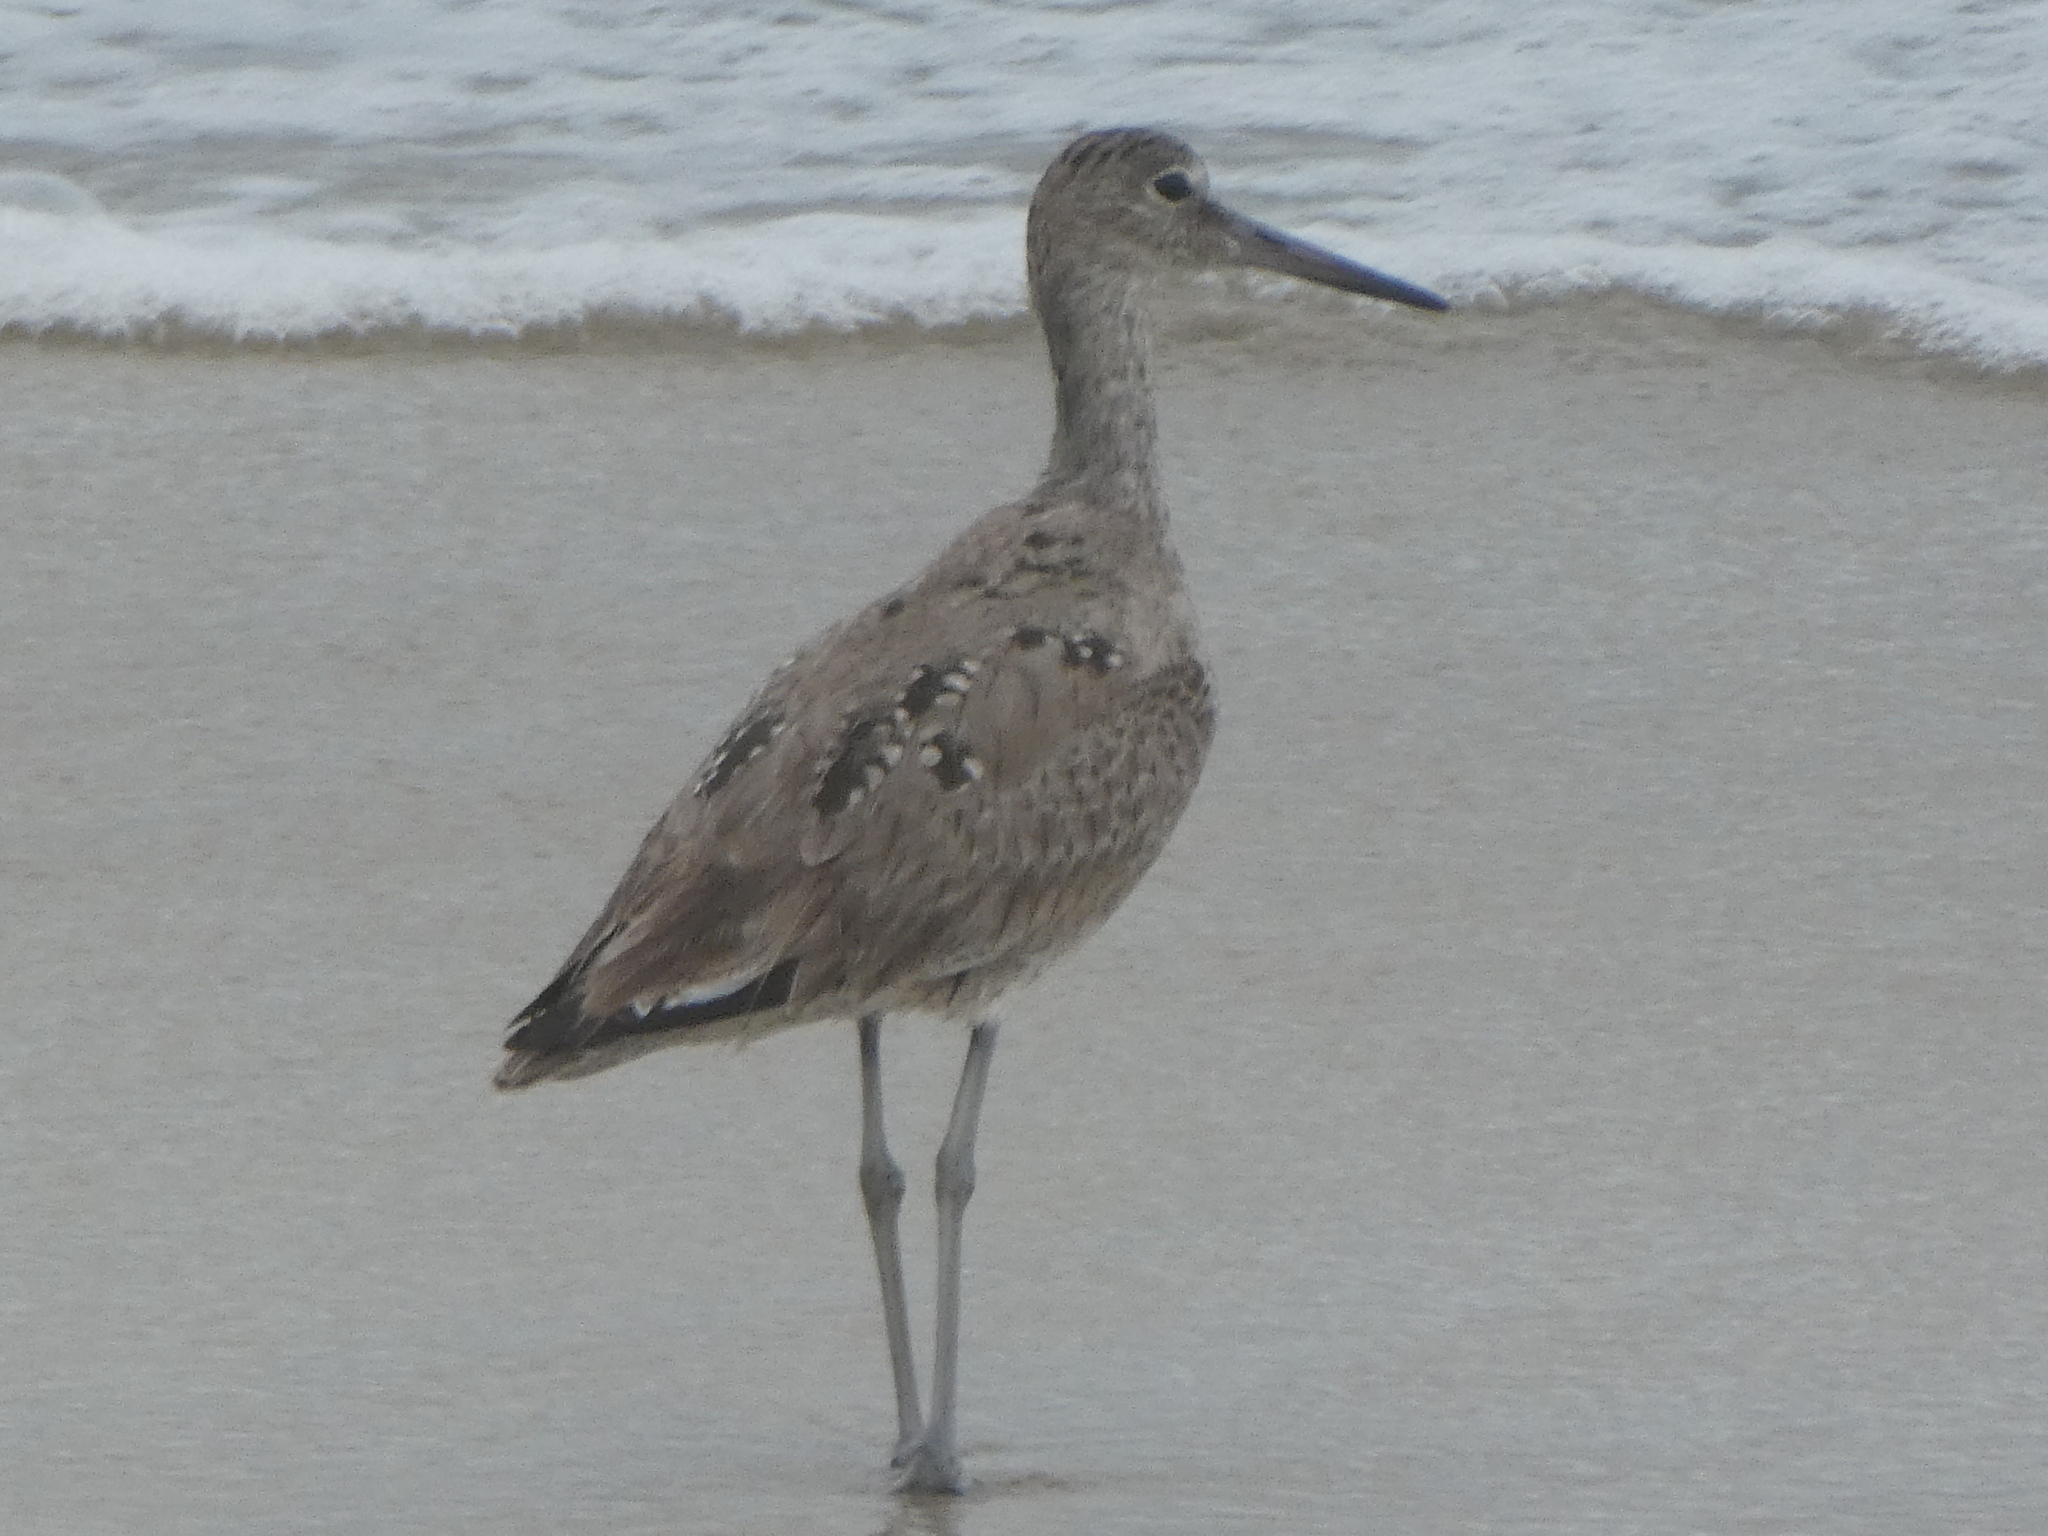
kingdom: Animalia
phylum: Chordata
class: Aves
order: Charadriiformes
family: Scolopacidae
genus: Tringa
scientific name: Tringa semipalmata
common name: Willet
